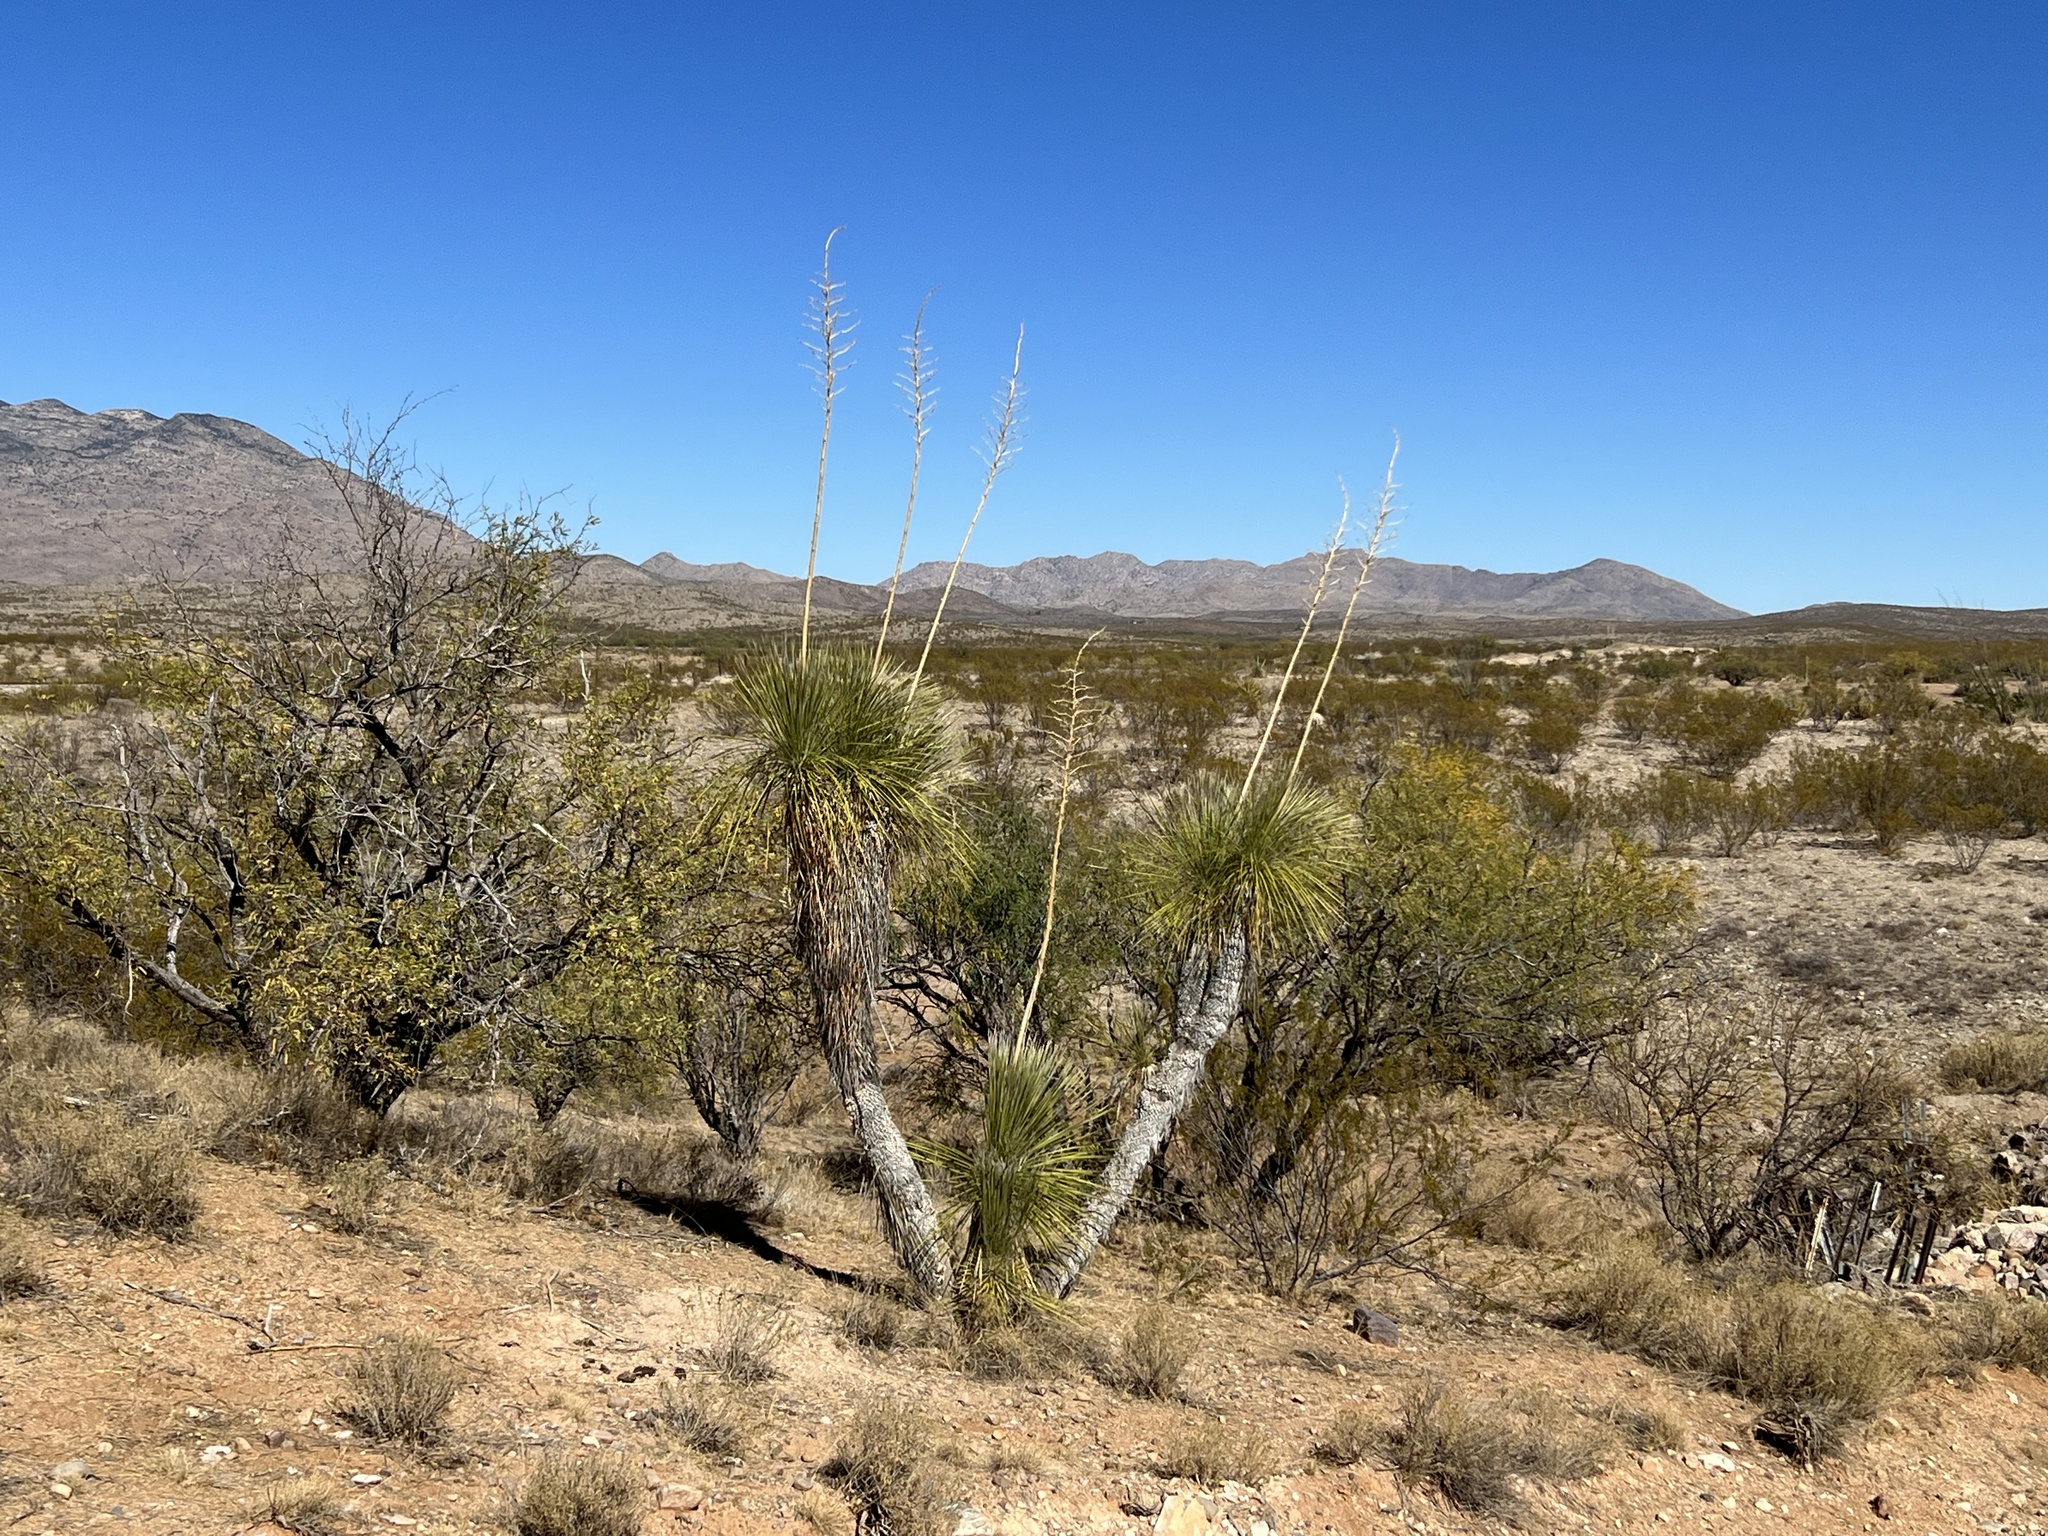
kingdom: Plantae
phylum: Tracheophyta
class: Liliopsida
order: Asparagales
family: Asparagaceae
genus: Yucca
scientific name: Yucca elata
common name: Palmella
